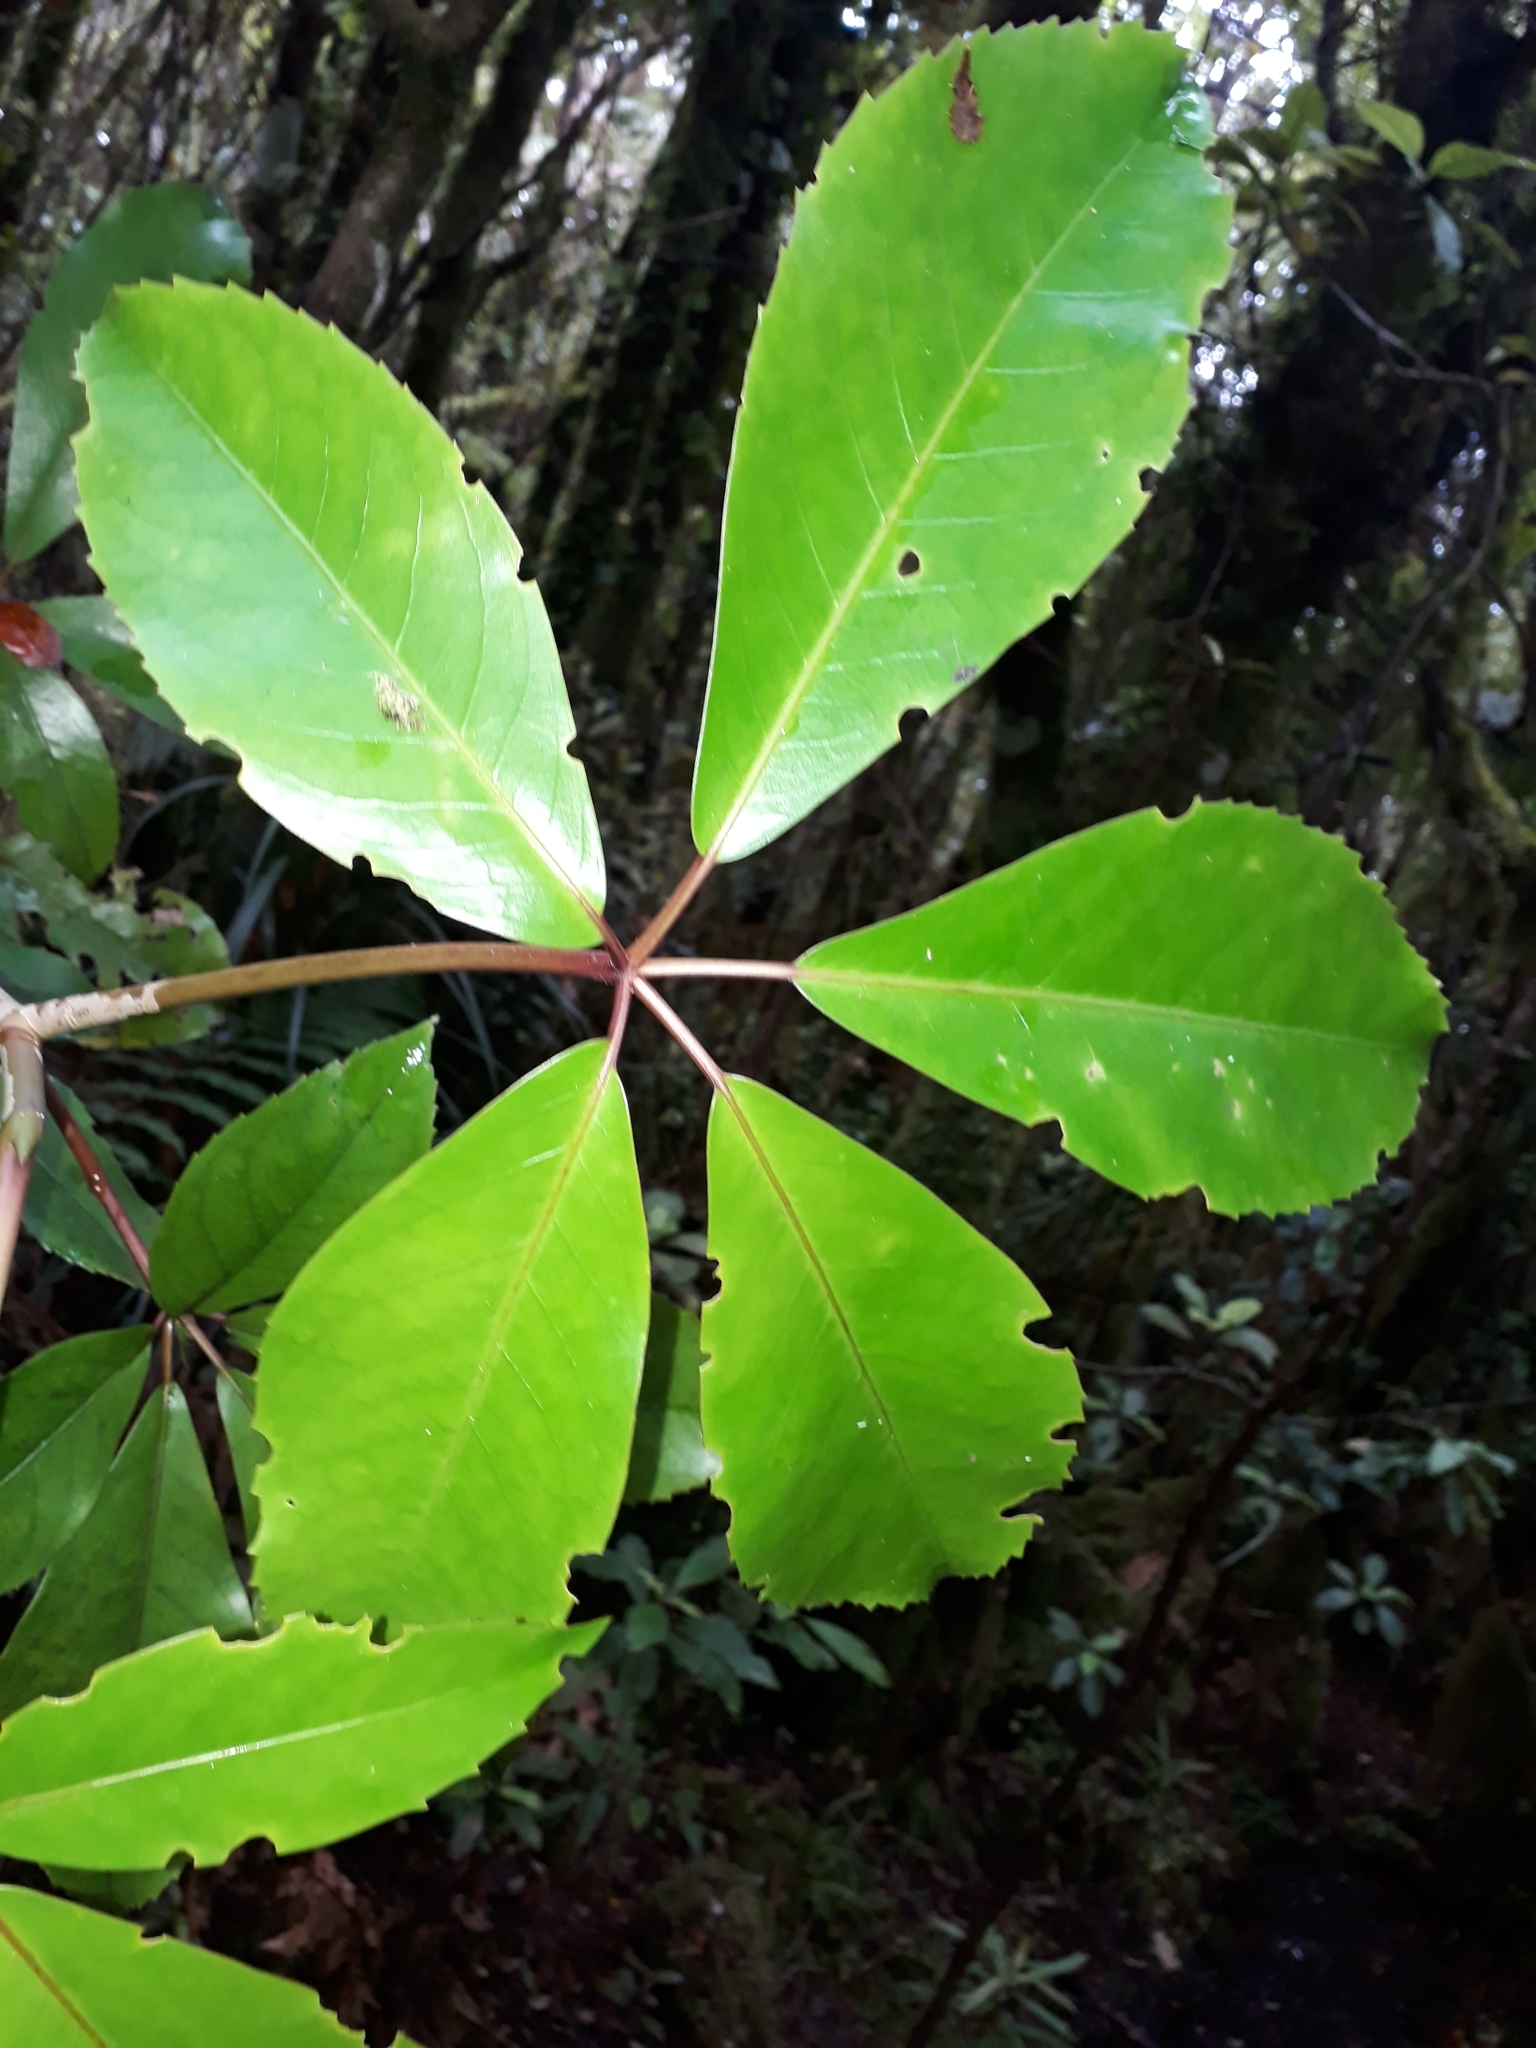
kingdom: Plantae
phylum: Tracheophyta
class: Magnoliopsida
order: Apiales
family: Araliaceae
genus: Neopanax
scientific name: Neopanax laetus
